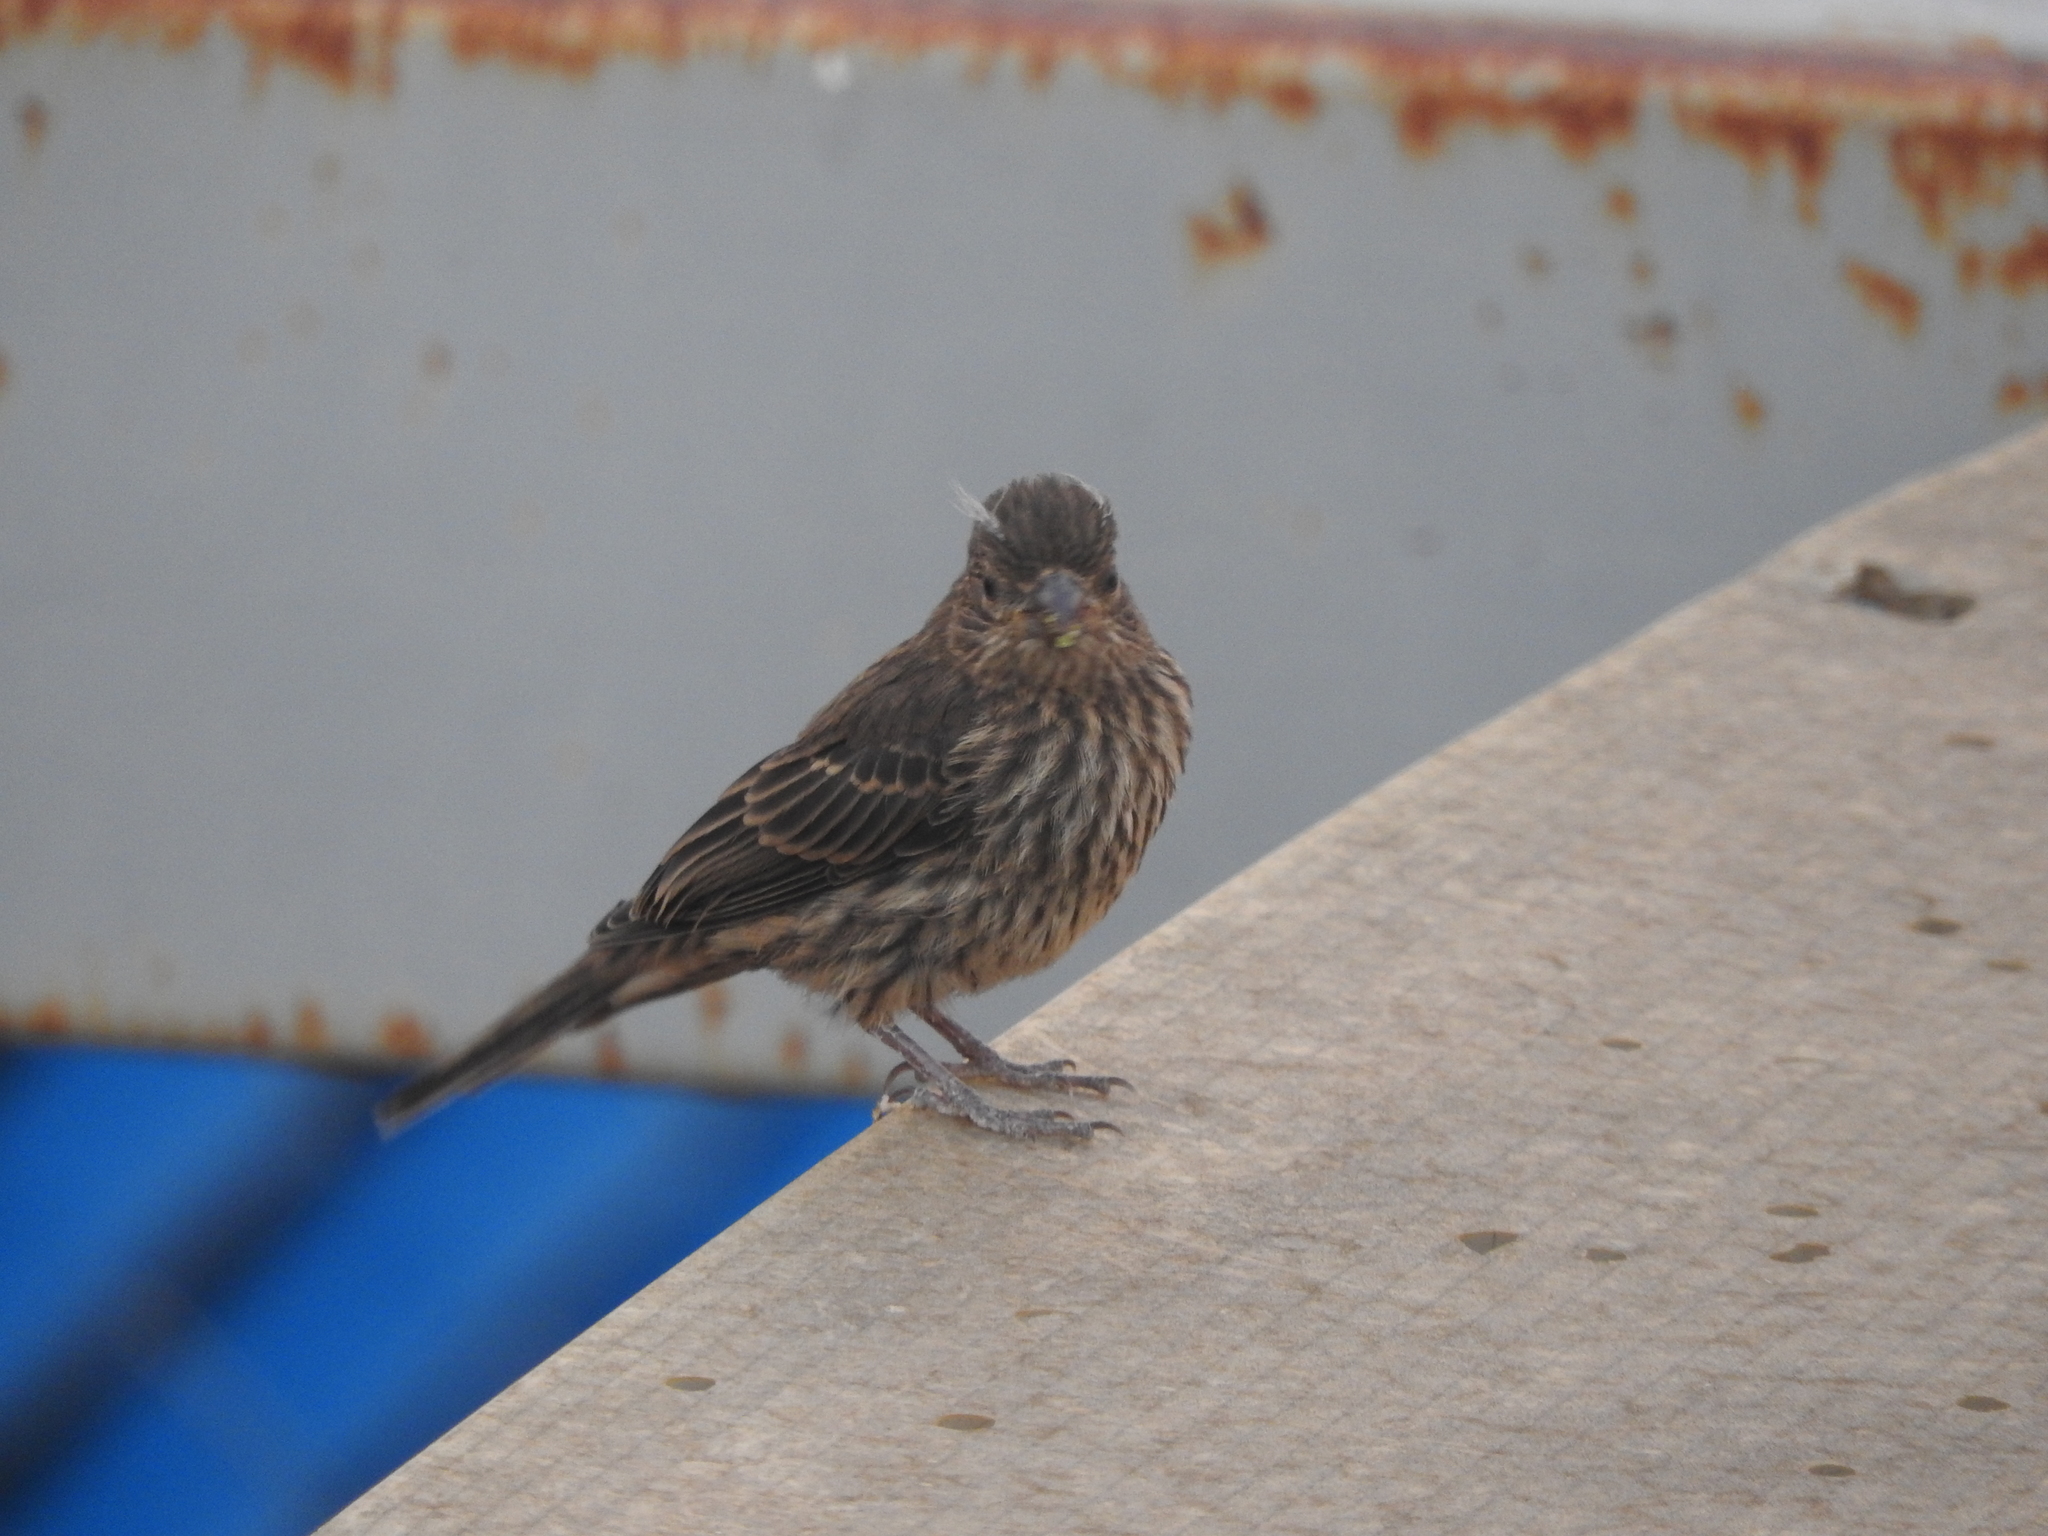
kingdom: Animalia
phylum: Chordata
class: Aves
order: Passeriformes
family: Fringillidae
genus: Haemorhous
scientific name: Haemorhous mexicanus
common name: House finch
